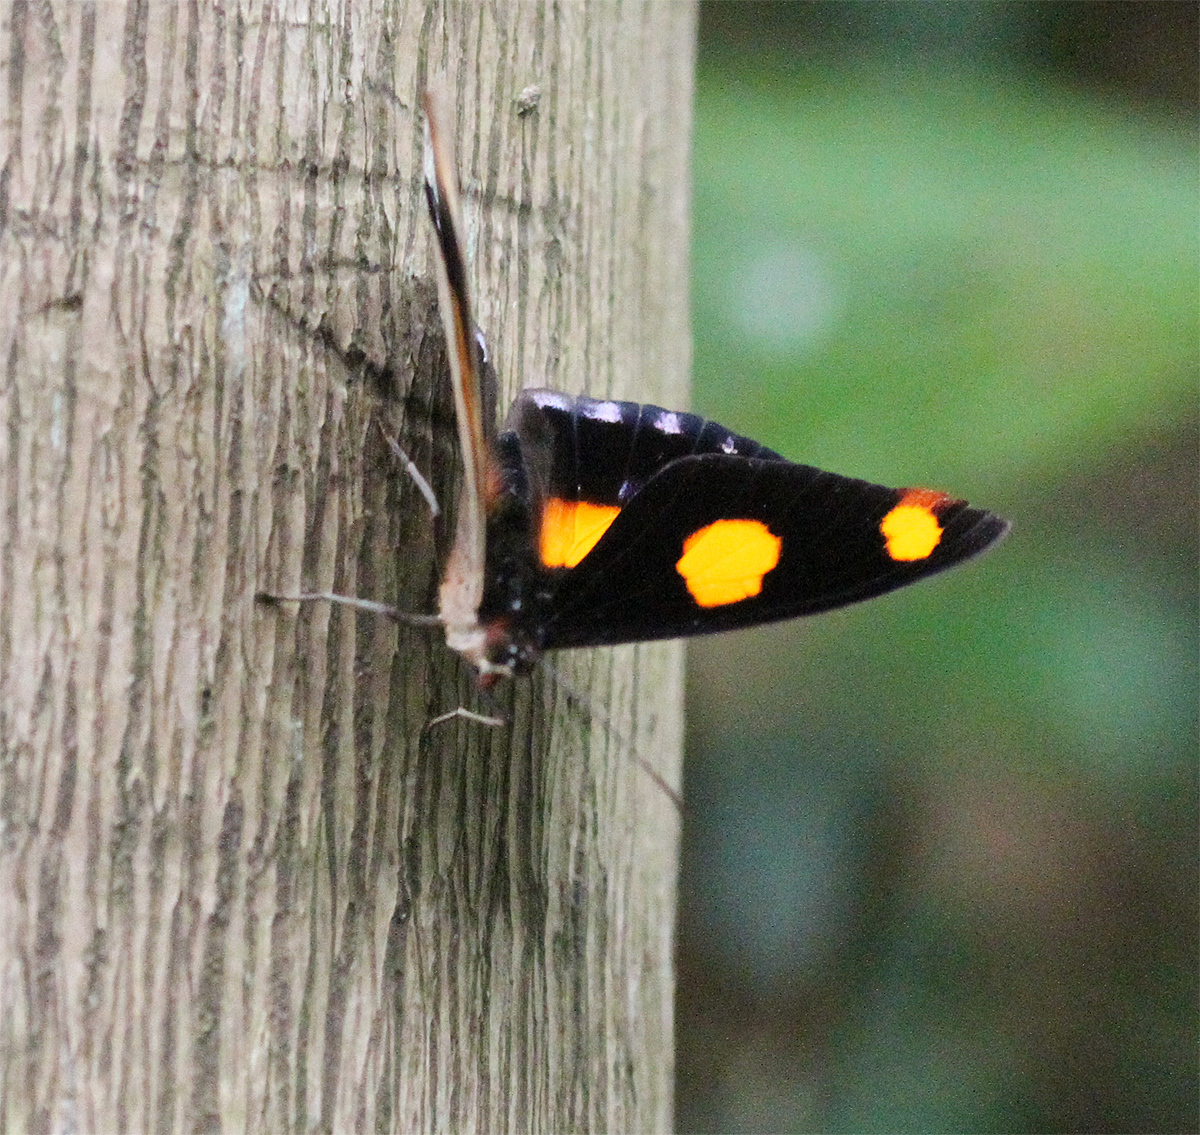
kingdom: Animalia
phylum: Arthropoda
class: Insecta
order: Lepidoptera
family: Nymphalidae
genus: Catonephele
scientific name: Catonephele numilia
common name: Blue-frosted banner
